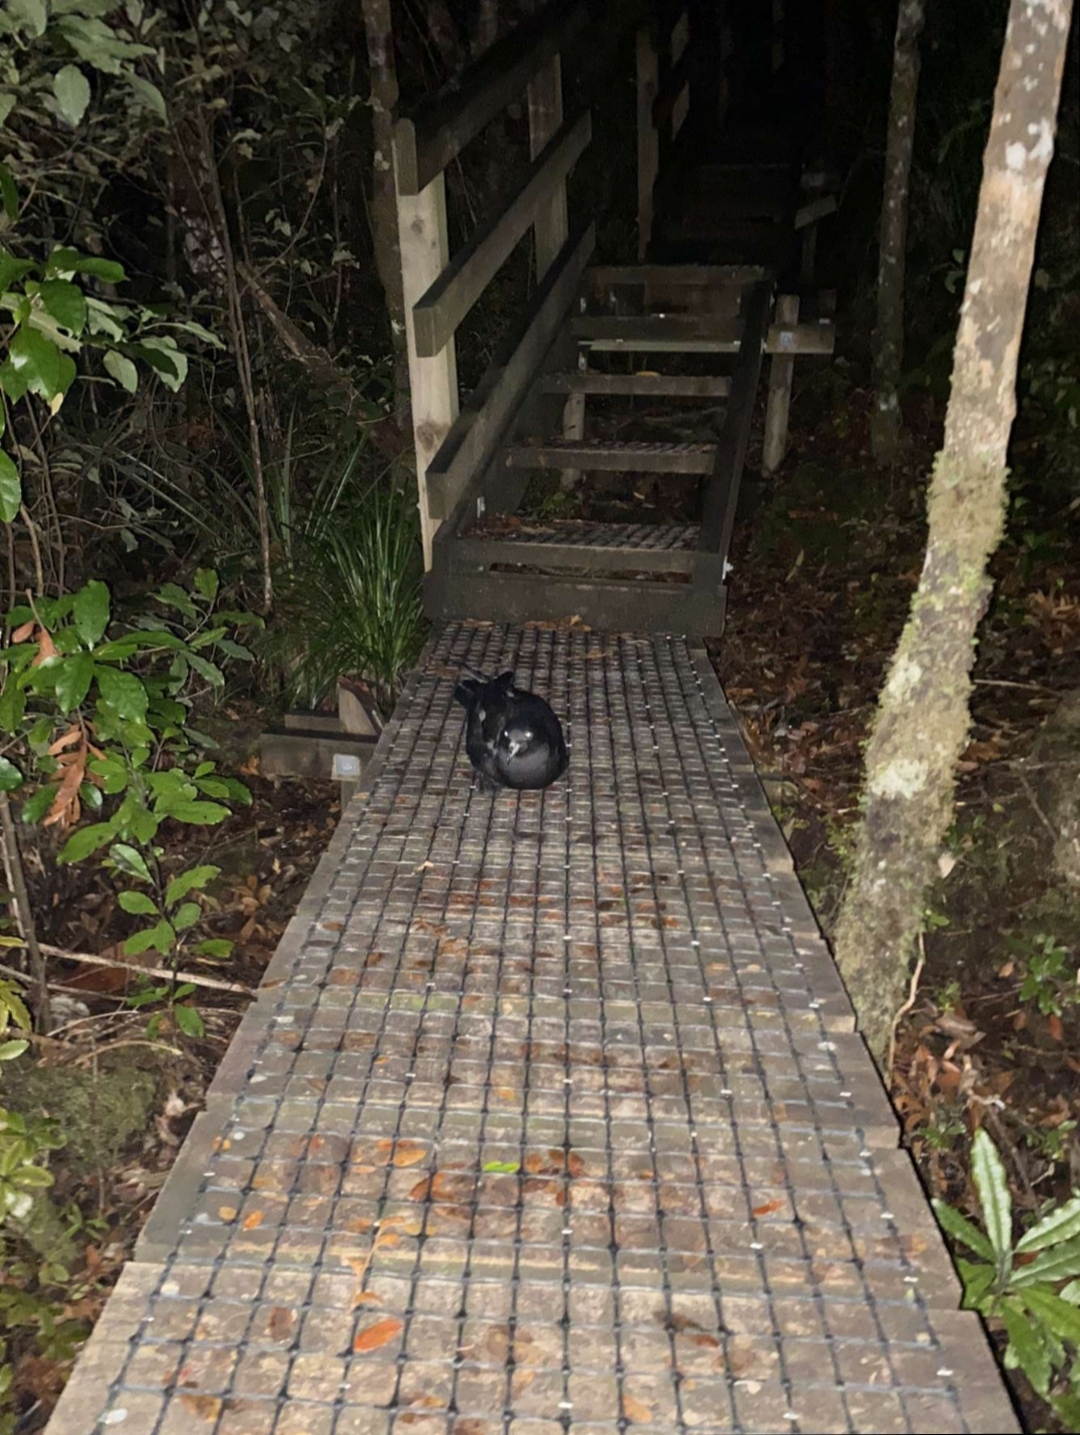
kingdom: Animalia
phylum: Chordata
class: Aves
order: Procellariiformes
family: Procellariidae
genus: Procellaria
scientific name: Procellaria parkinsoni
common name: Black petrel
